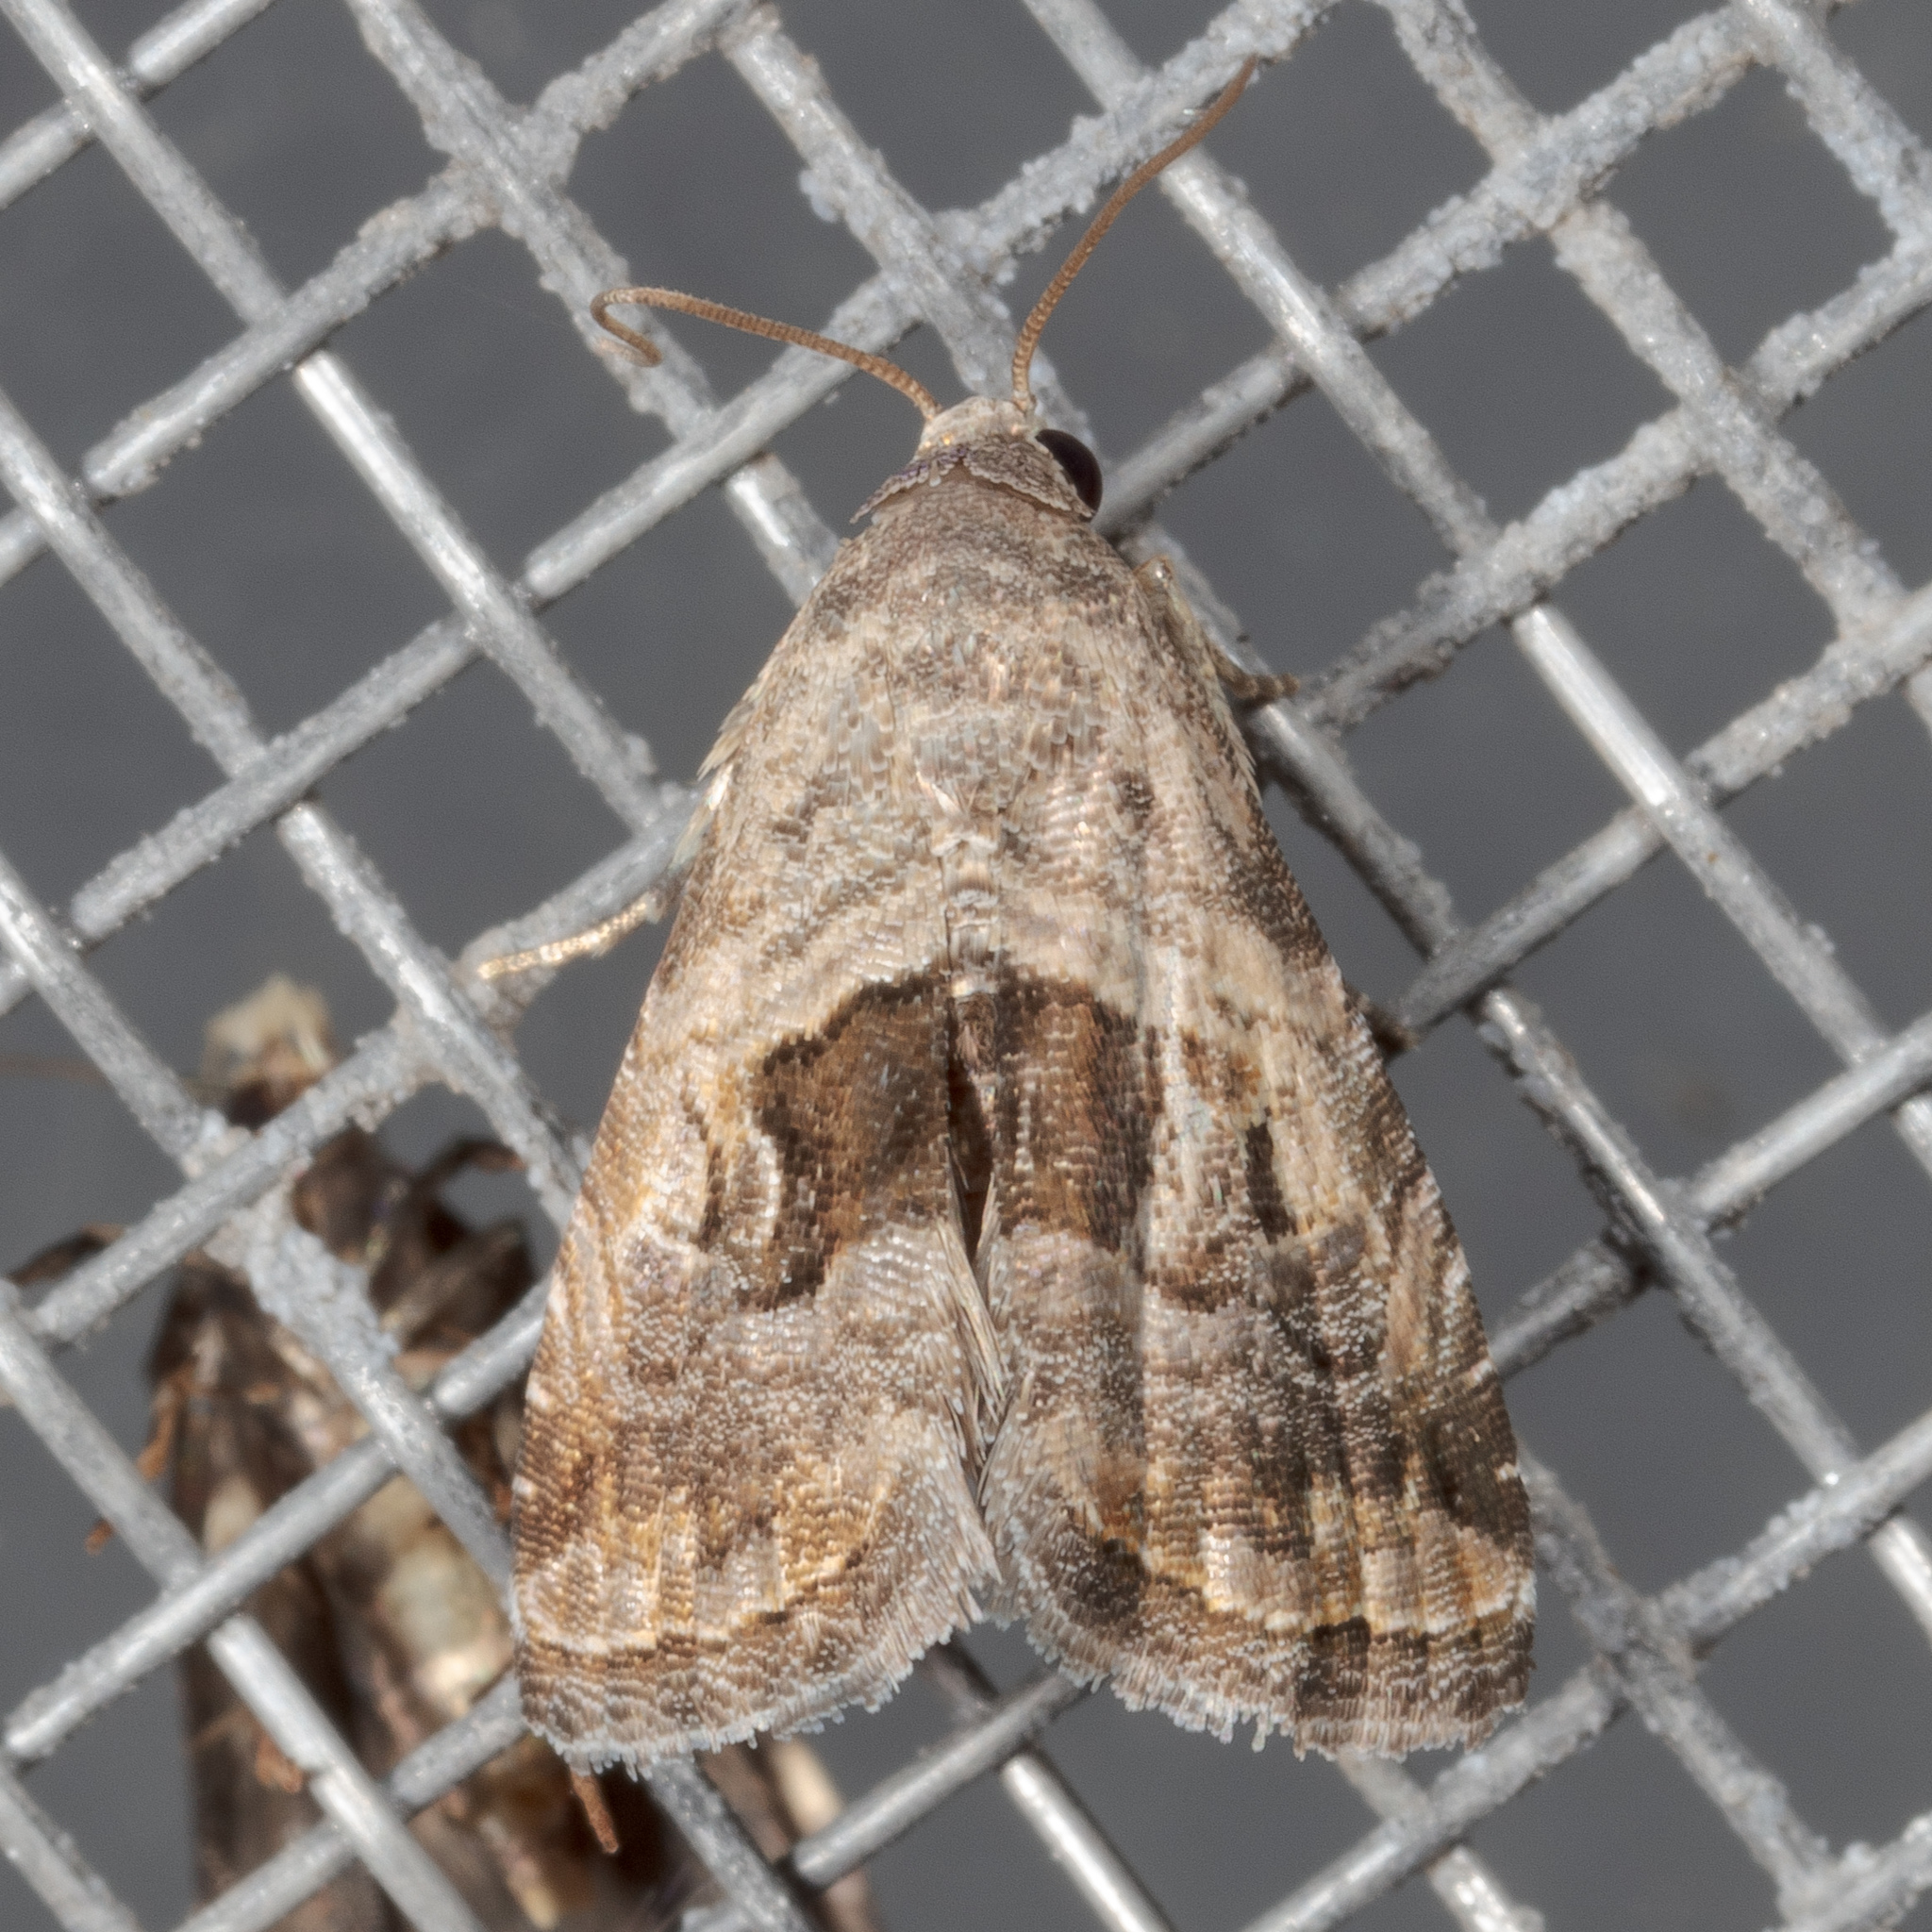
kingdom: Animalia
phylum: Arthropoda
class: Insecta
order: Lepidoptera
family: Noctuidae
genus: Tripudia
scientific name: Tripudia quadrifera
